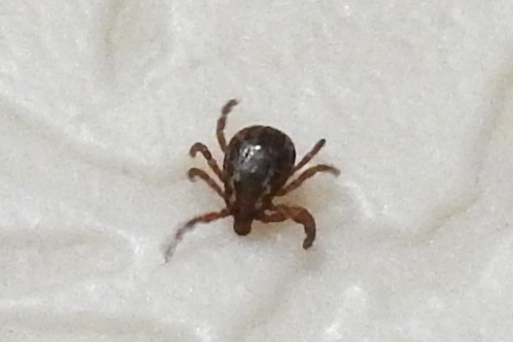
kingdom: Animalia
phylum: Arthropoda
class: Arachnida
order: Ixodida
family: Ixodidae
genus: Dermacentor
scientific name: Dermacentor variabilis
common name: American dog tick
